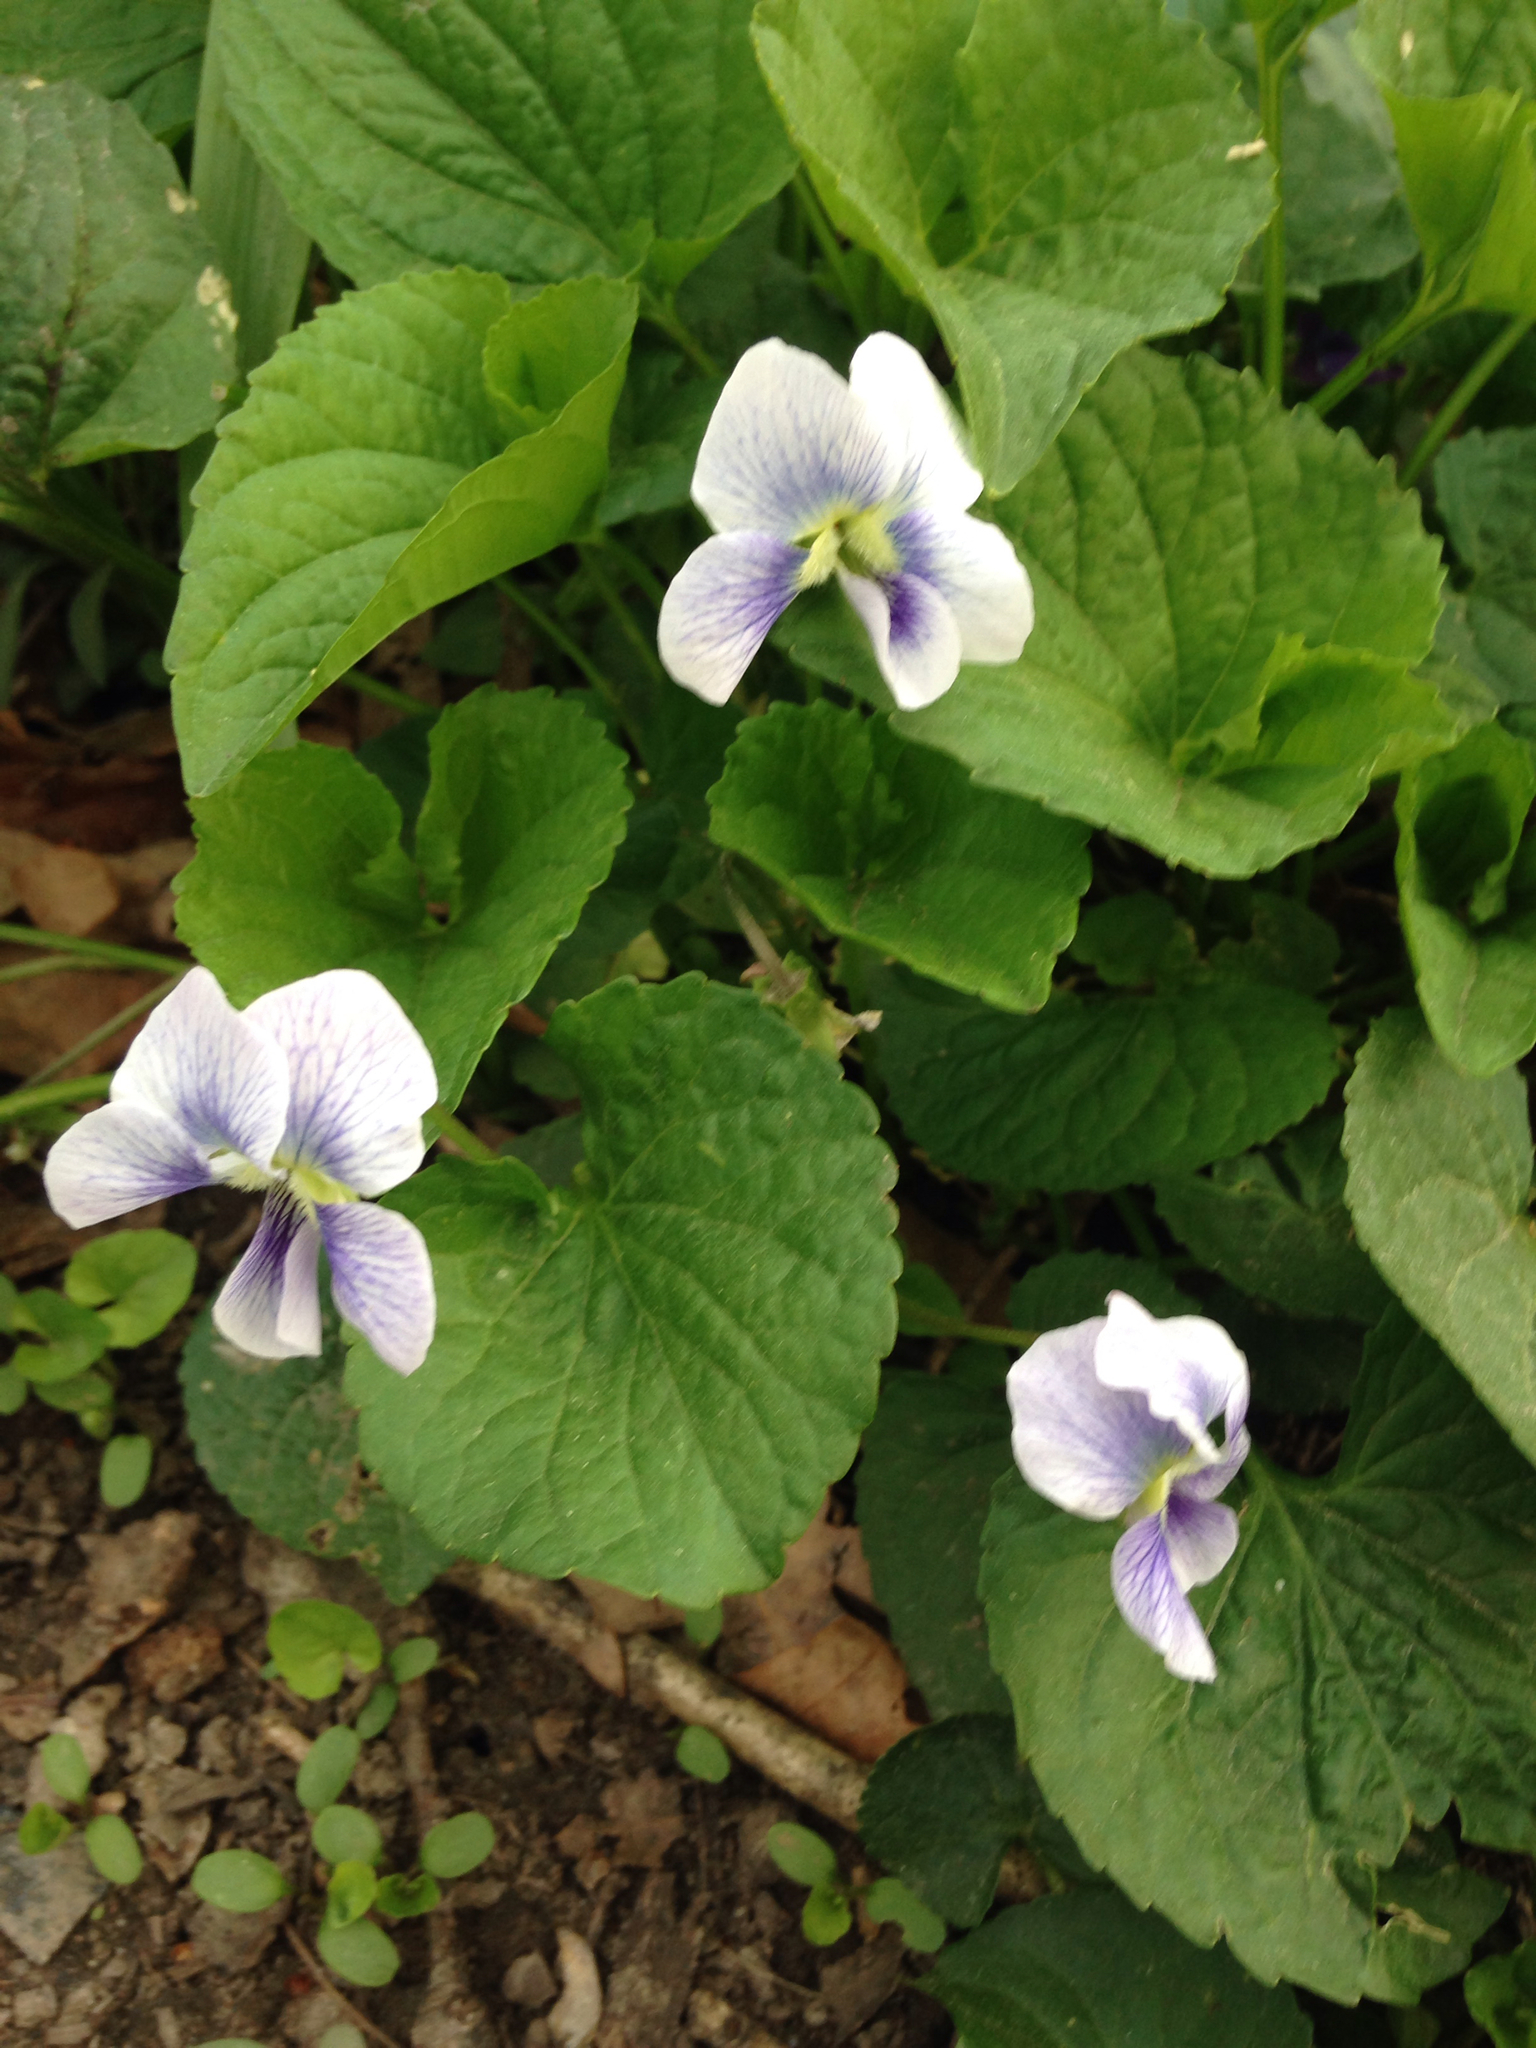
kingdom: Plantae
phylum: Tracheophyta
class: Magnoliopsida
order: Malpighiales
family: Violaceae
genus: Viola
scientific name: Viola sororia
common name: Dooryard violet
